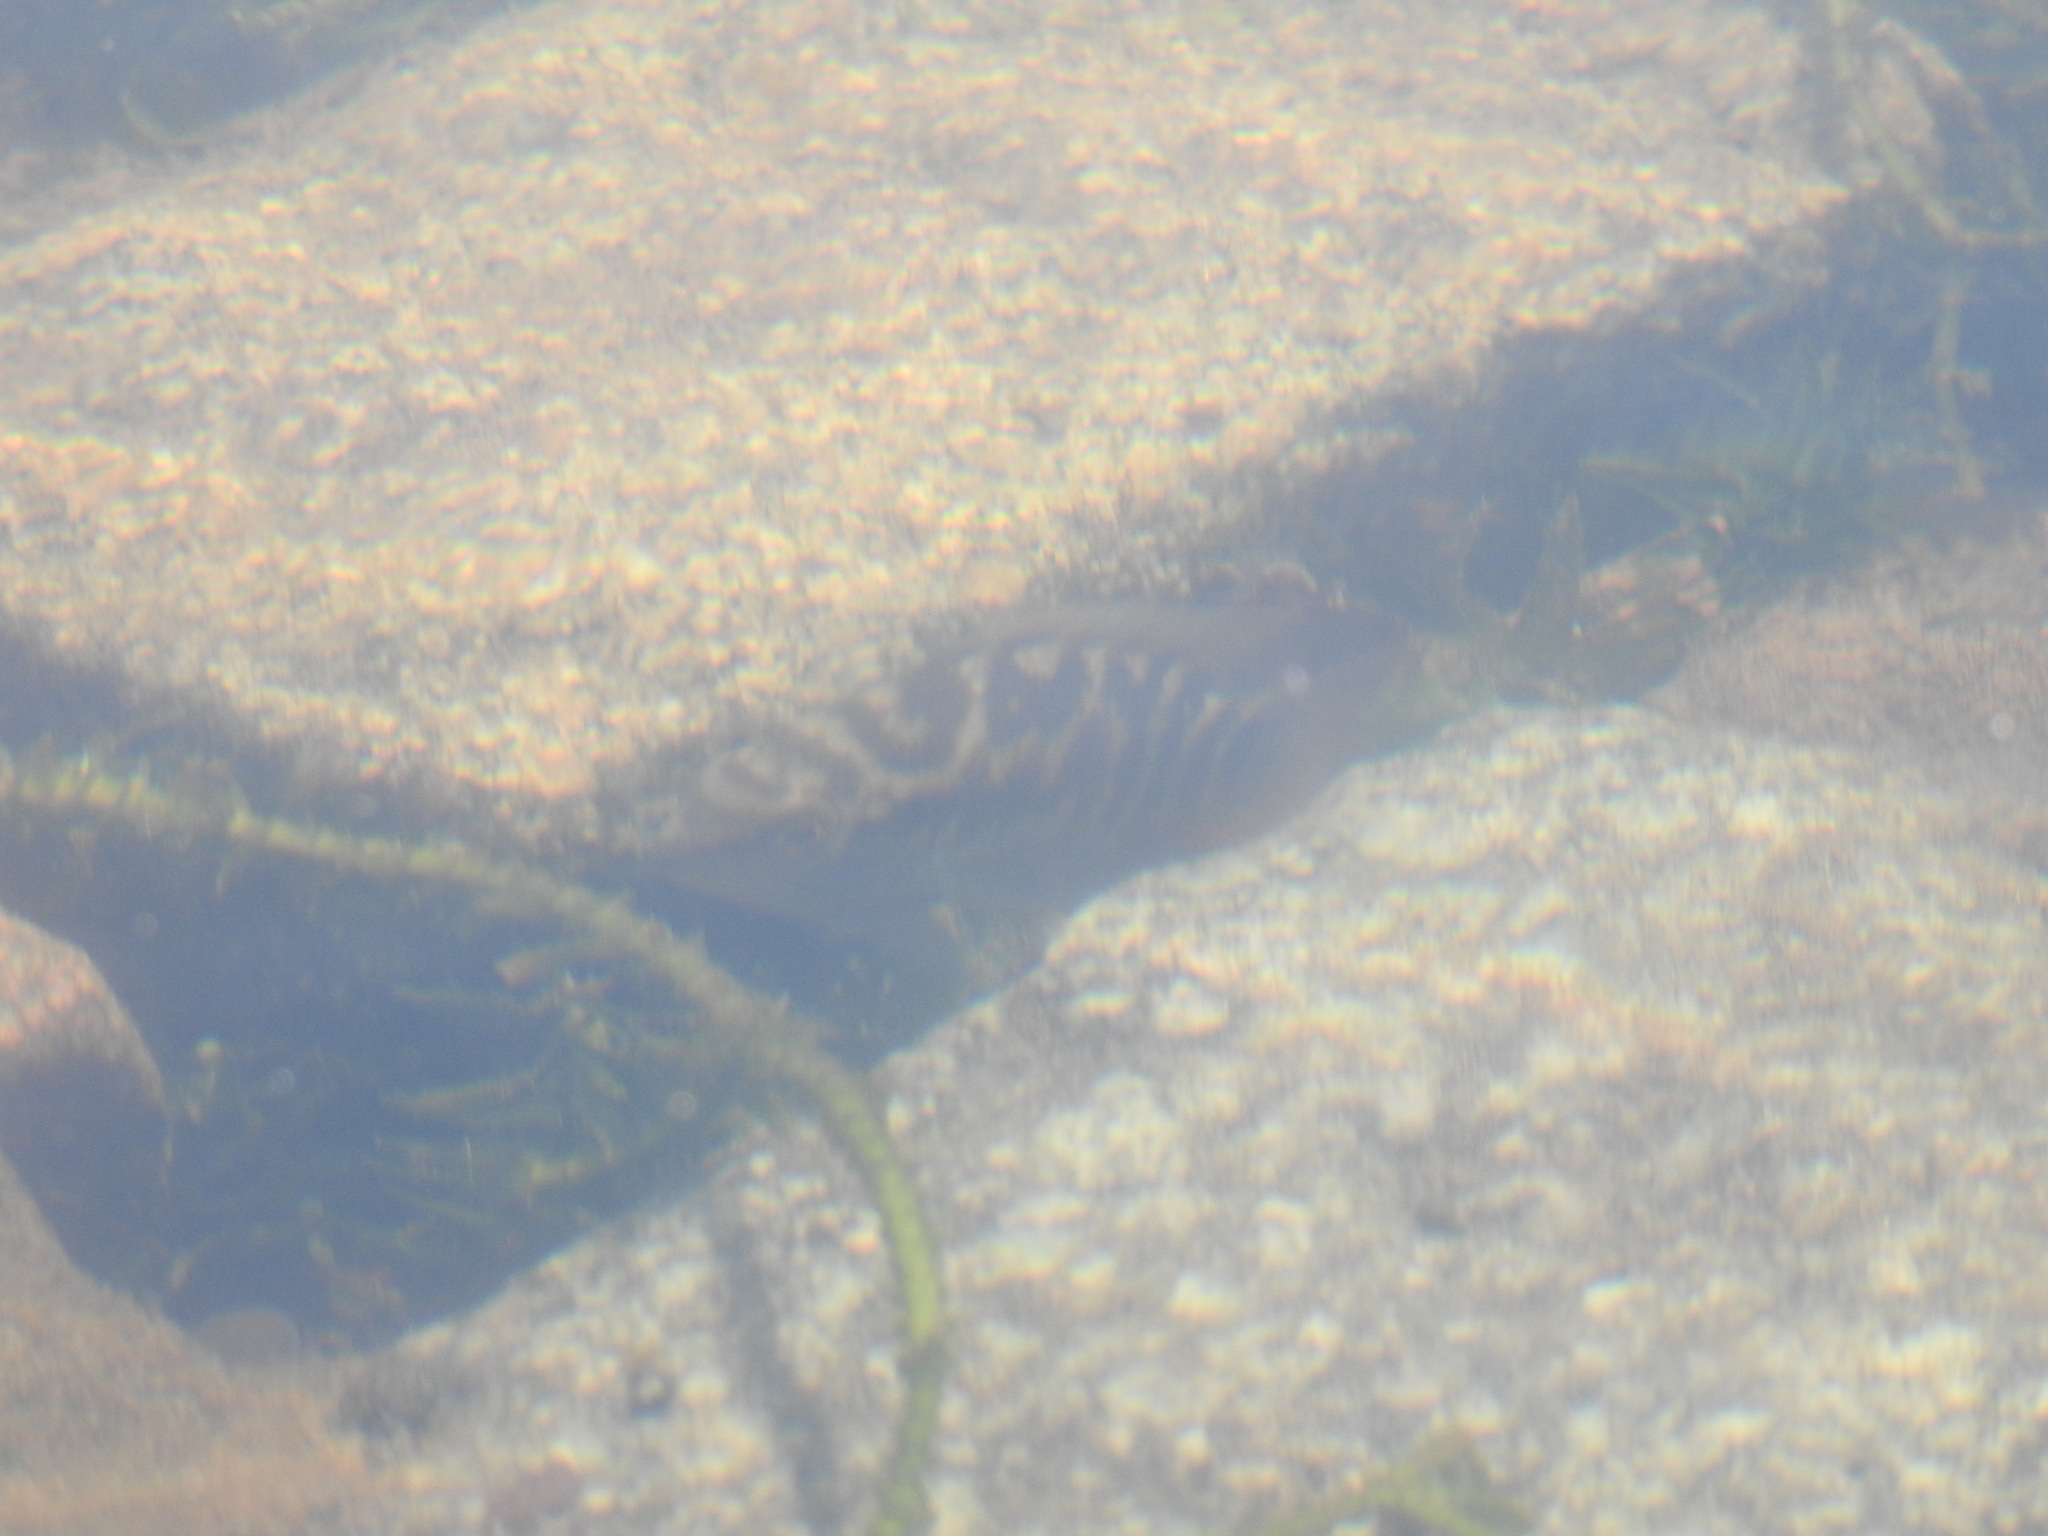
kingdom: Animalia
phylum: Chordata
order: Perciformes
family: Cichlidae
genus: Australoheros
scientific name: Australoheros facetus
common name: Chameleon cichlid
